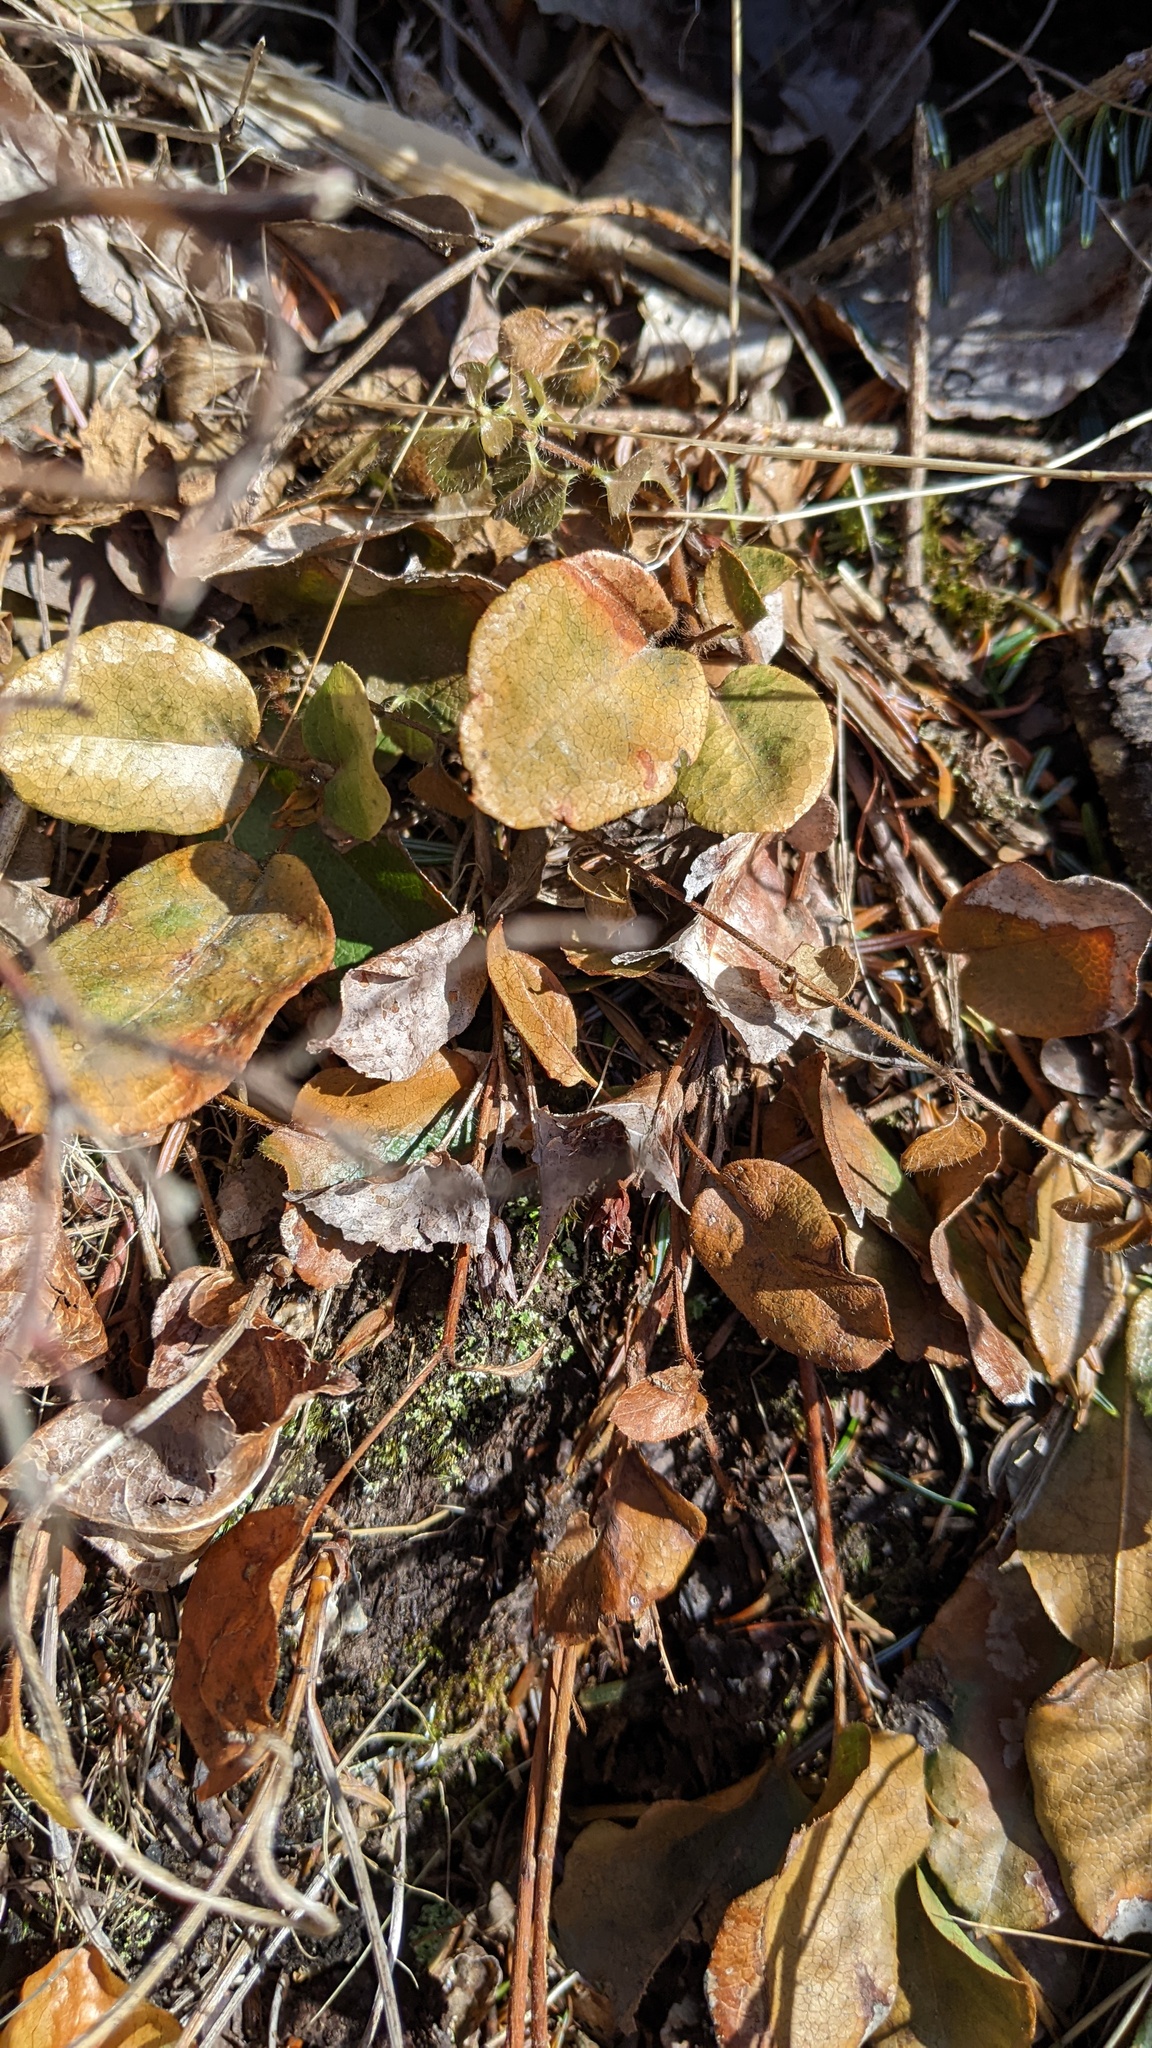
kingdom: Plantae
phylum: Tracheophyta
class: Magnoliopsida
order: Ericales
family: Ericaceae
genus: Epigaea
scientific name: Epigaea repens
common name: Gravelroot
